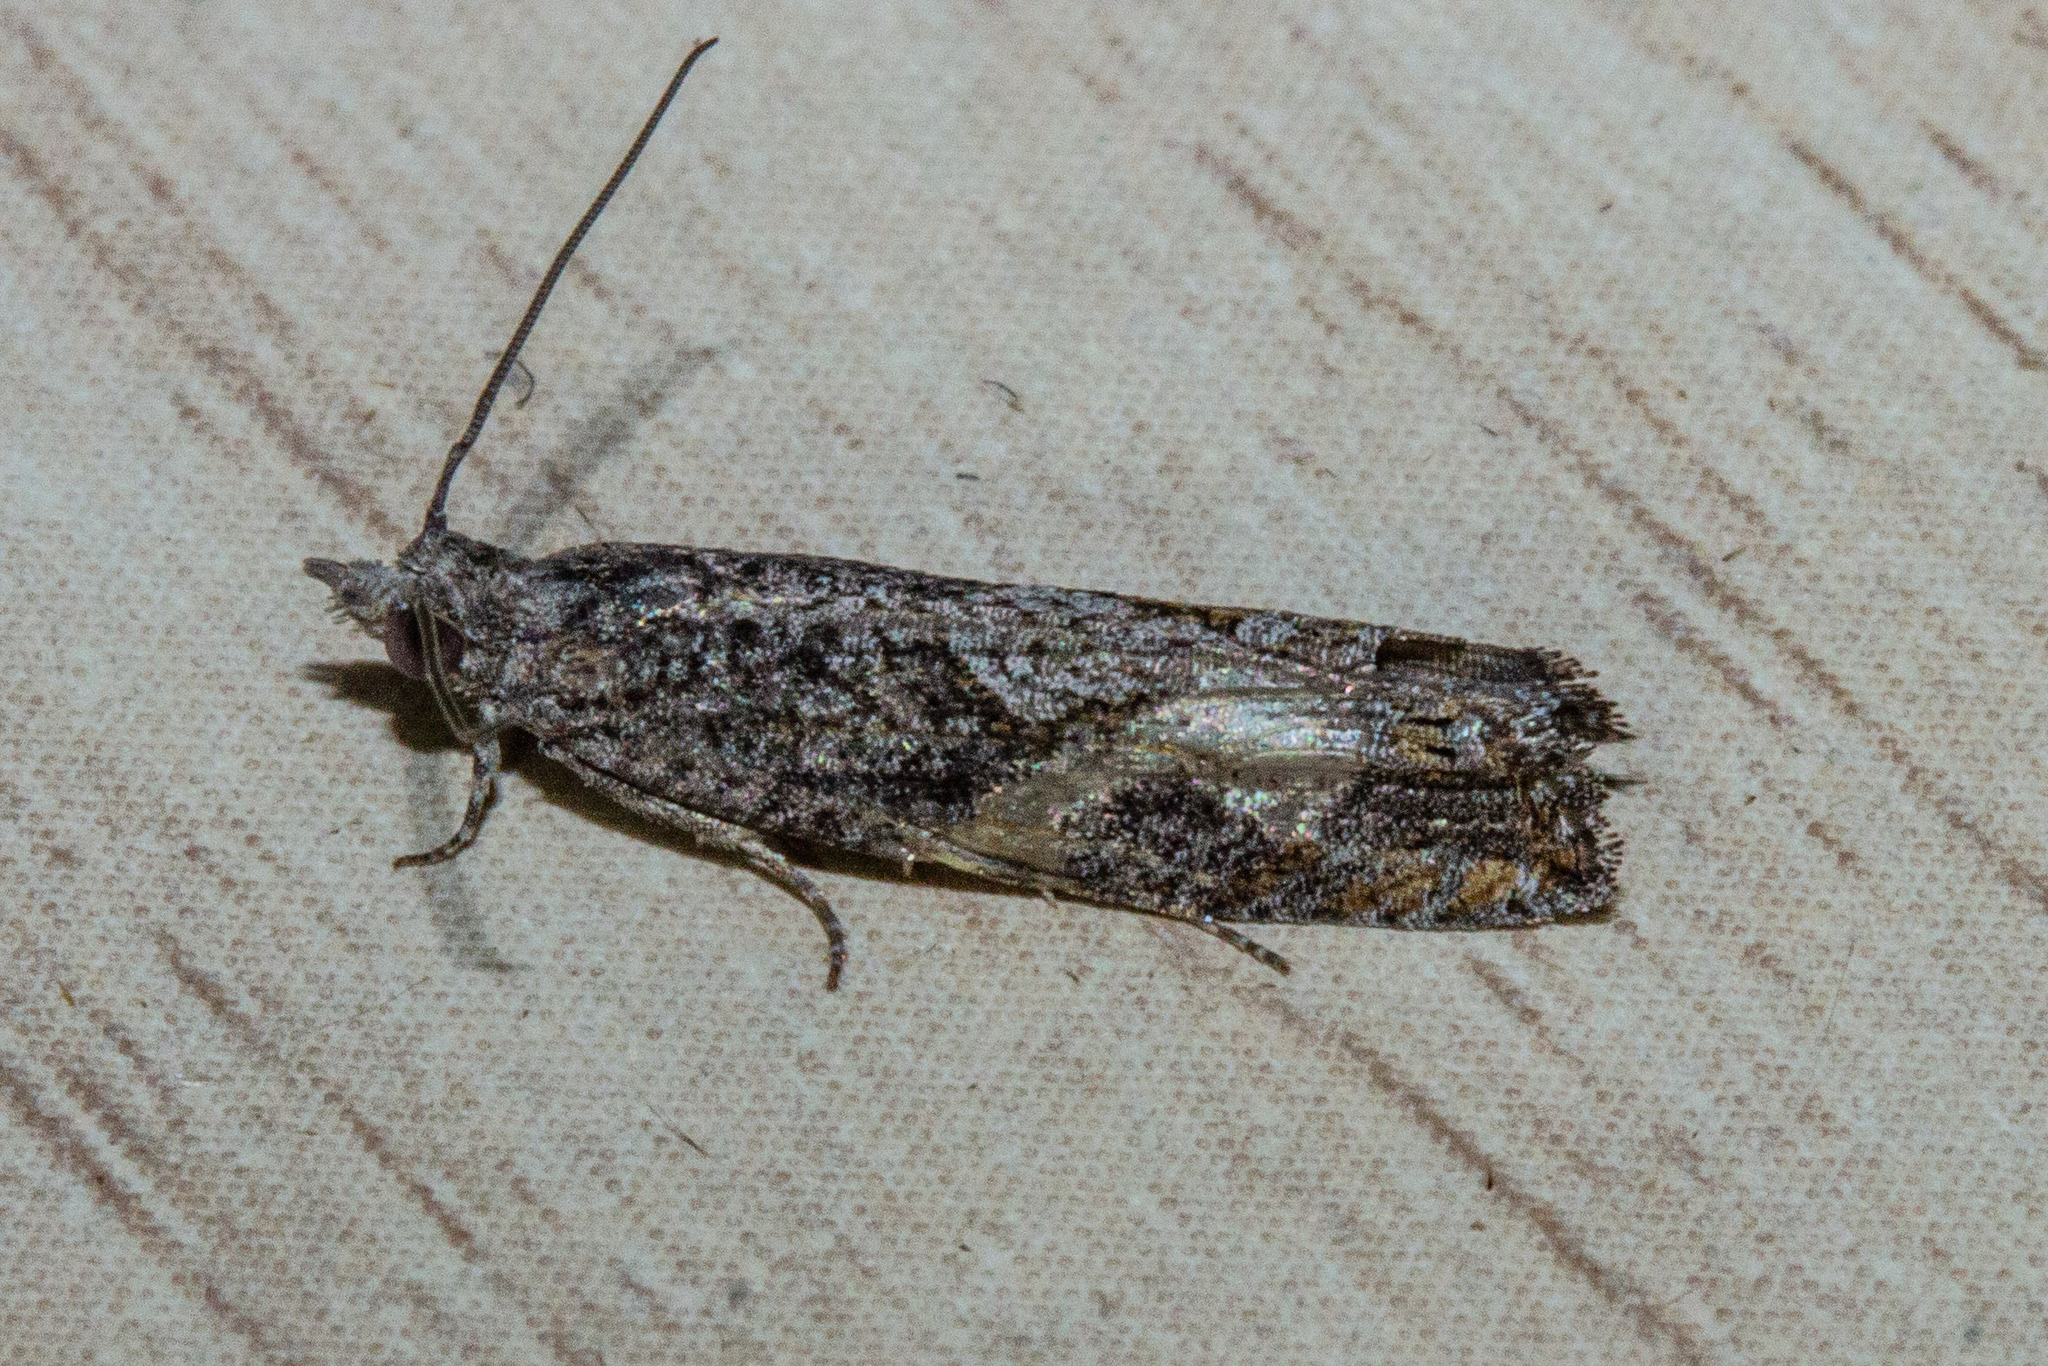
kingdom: Animalia
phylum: Arthropoda
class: Insecta
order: Lepidoptera
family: Tortricidae
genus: Strepsicrates
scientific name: Strepsicrates ejectana
